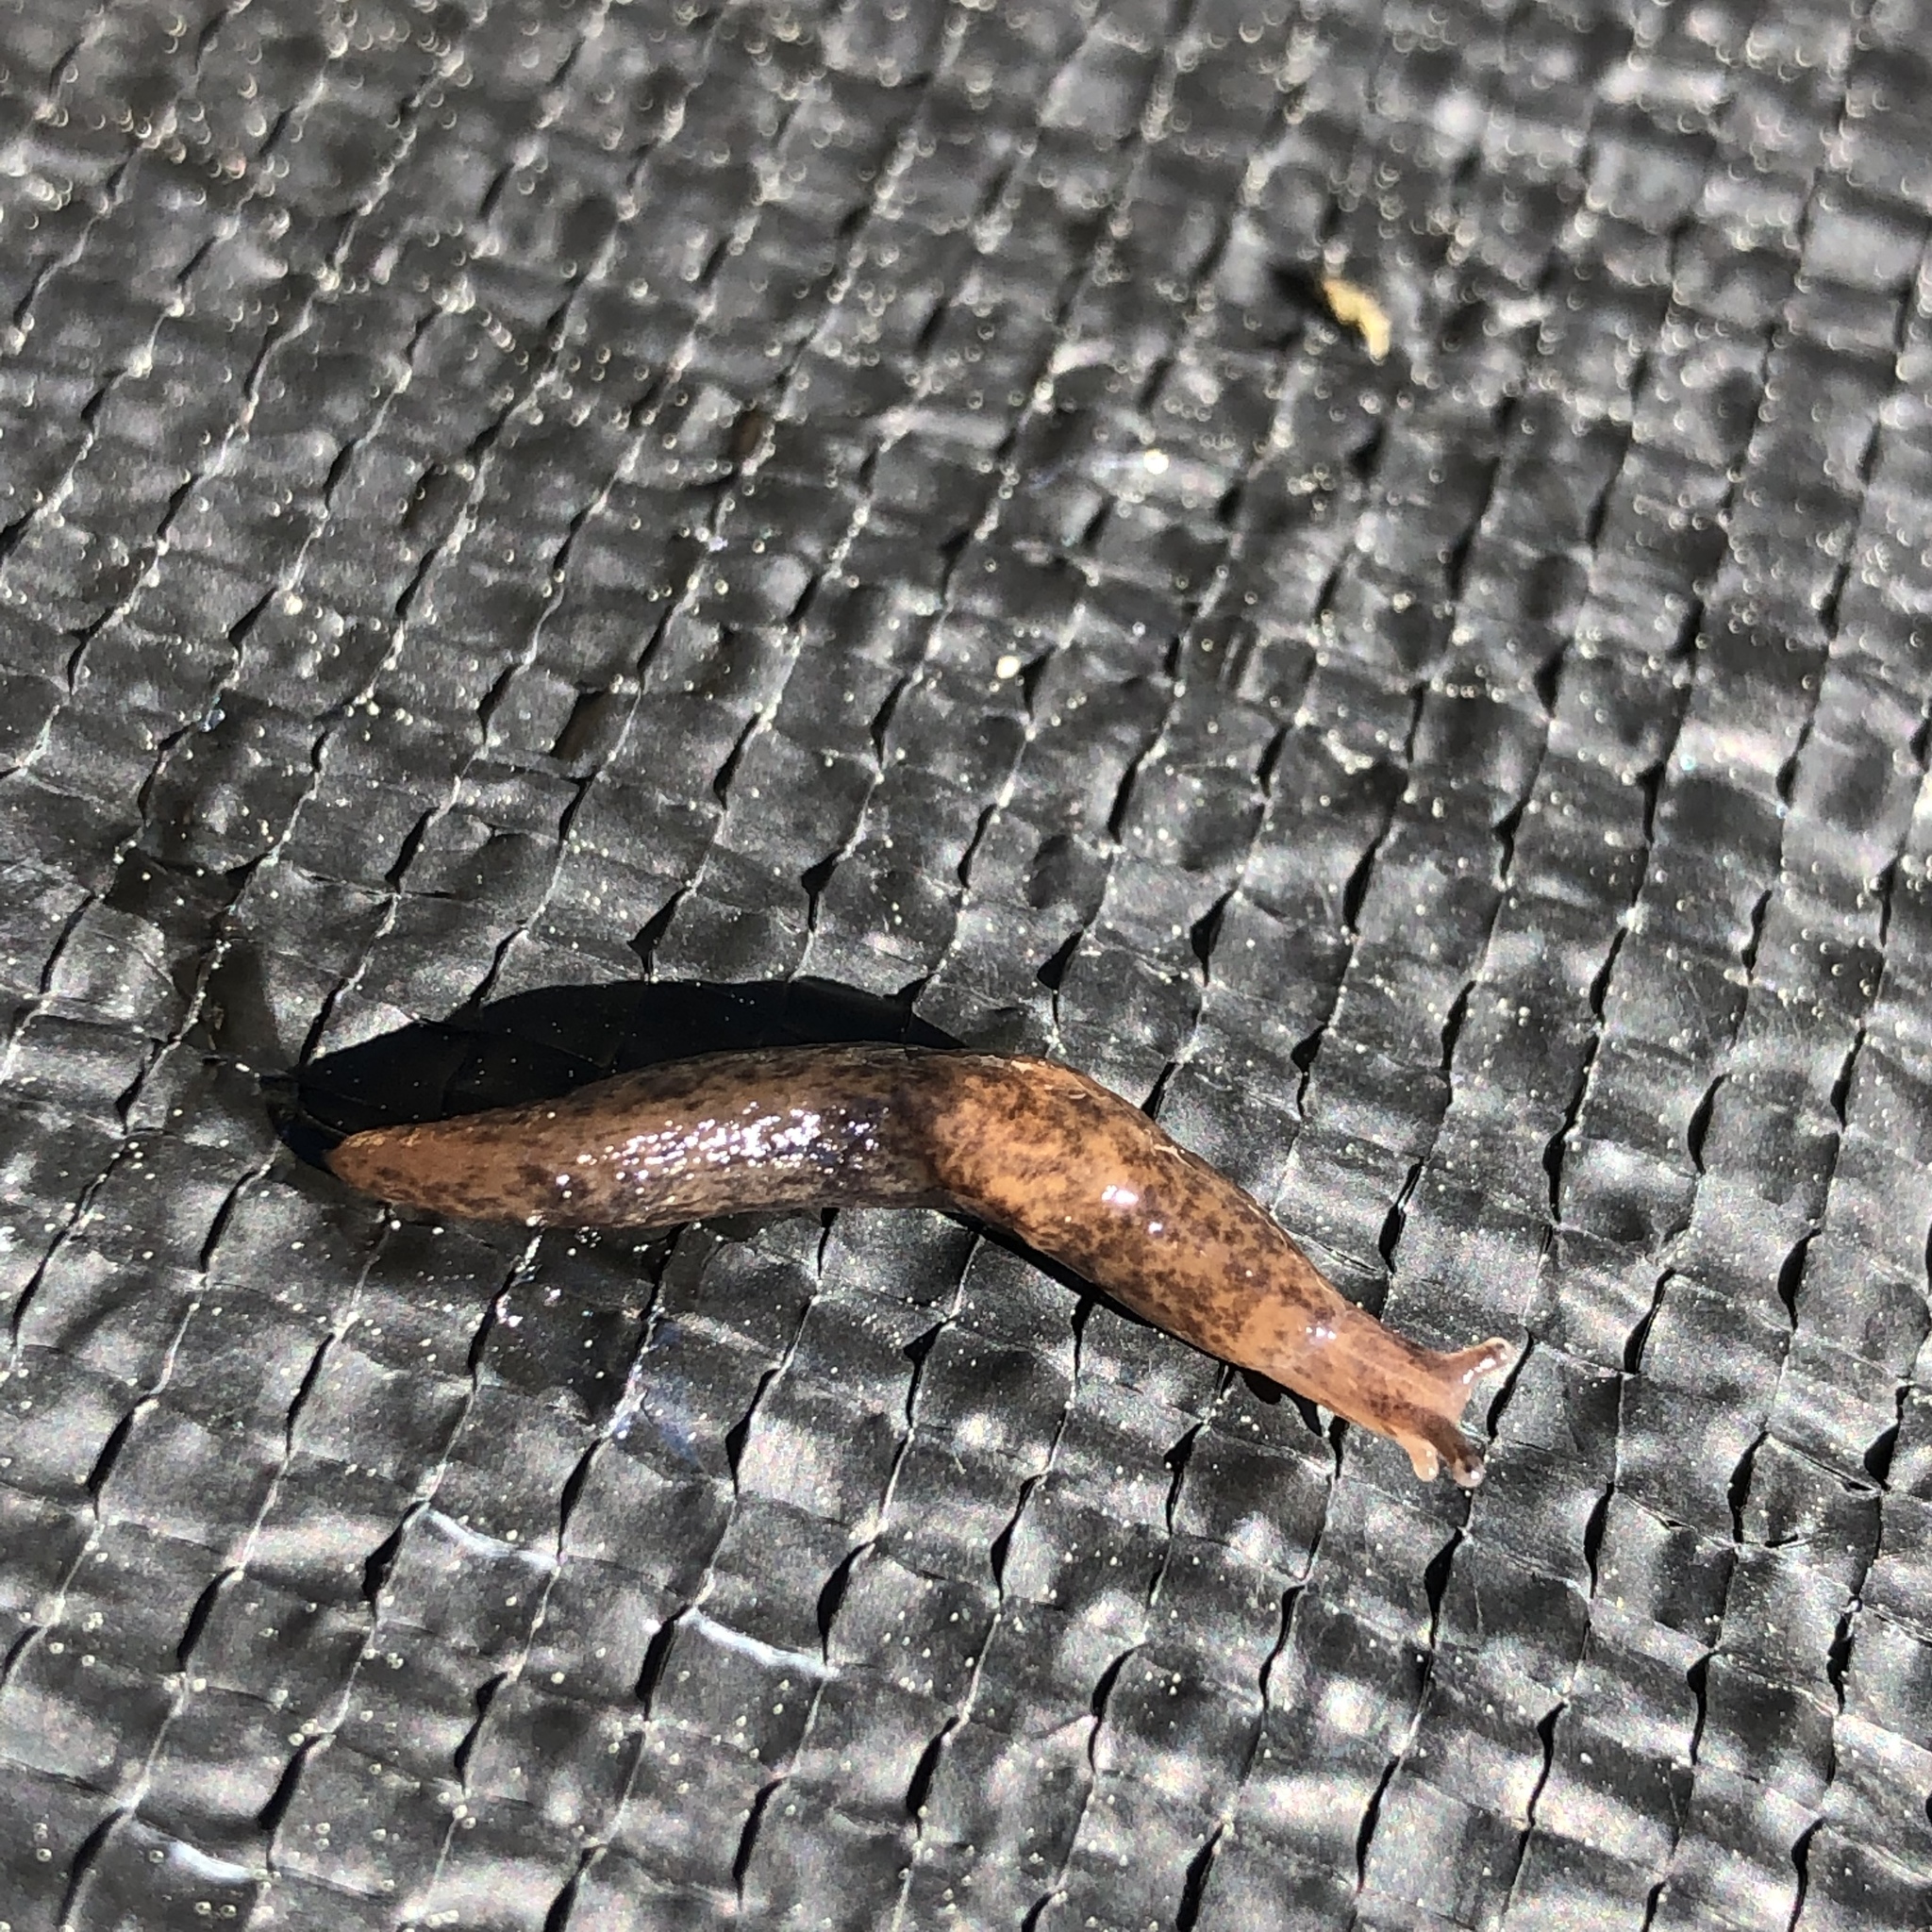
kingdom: Animalia
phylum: Mollusca
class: Gastropoda
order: Stylommatophora
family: Agriolimacidae
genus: Deroceras
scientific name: Deroceras reticulatum
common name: Gray field slug
